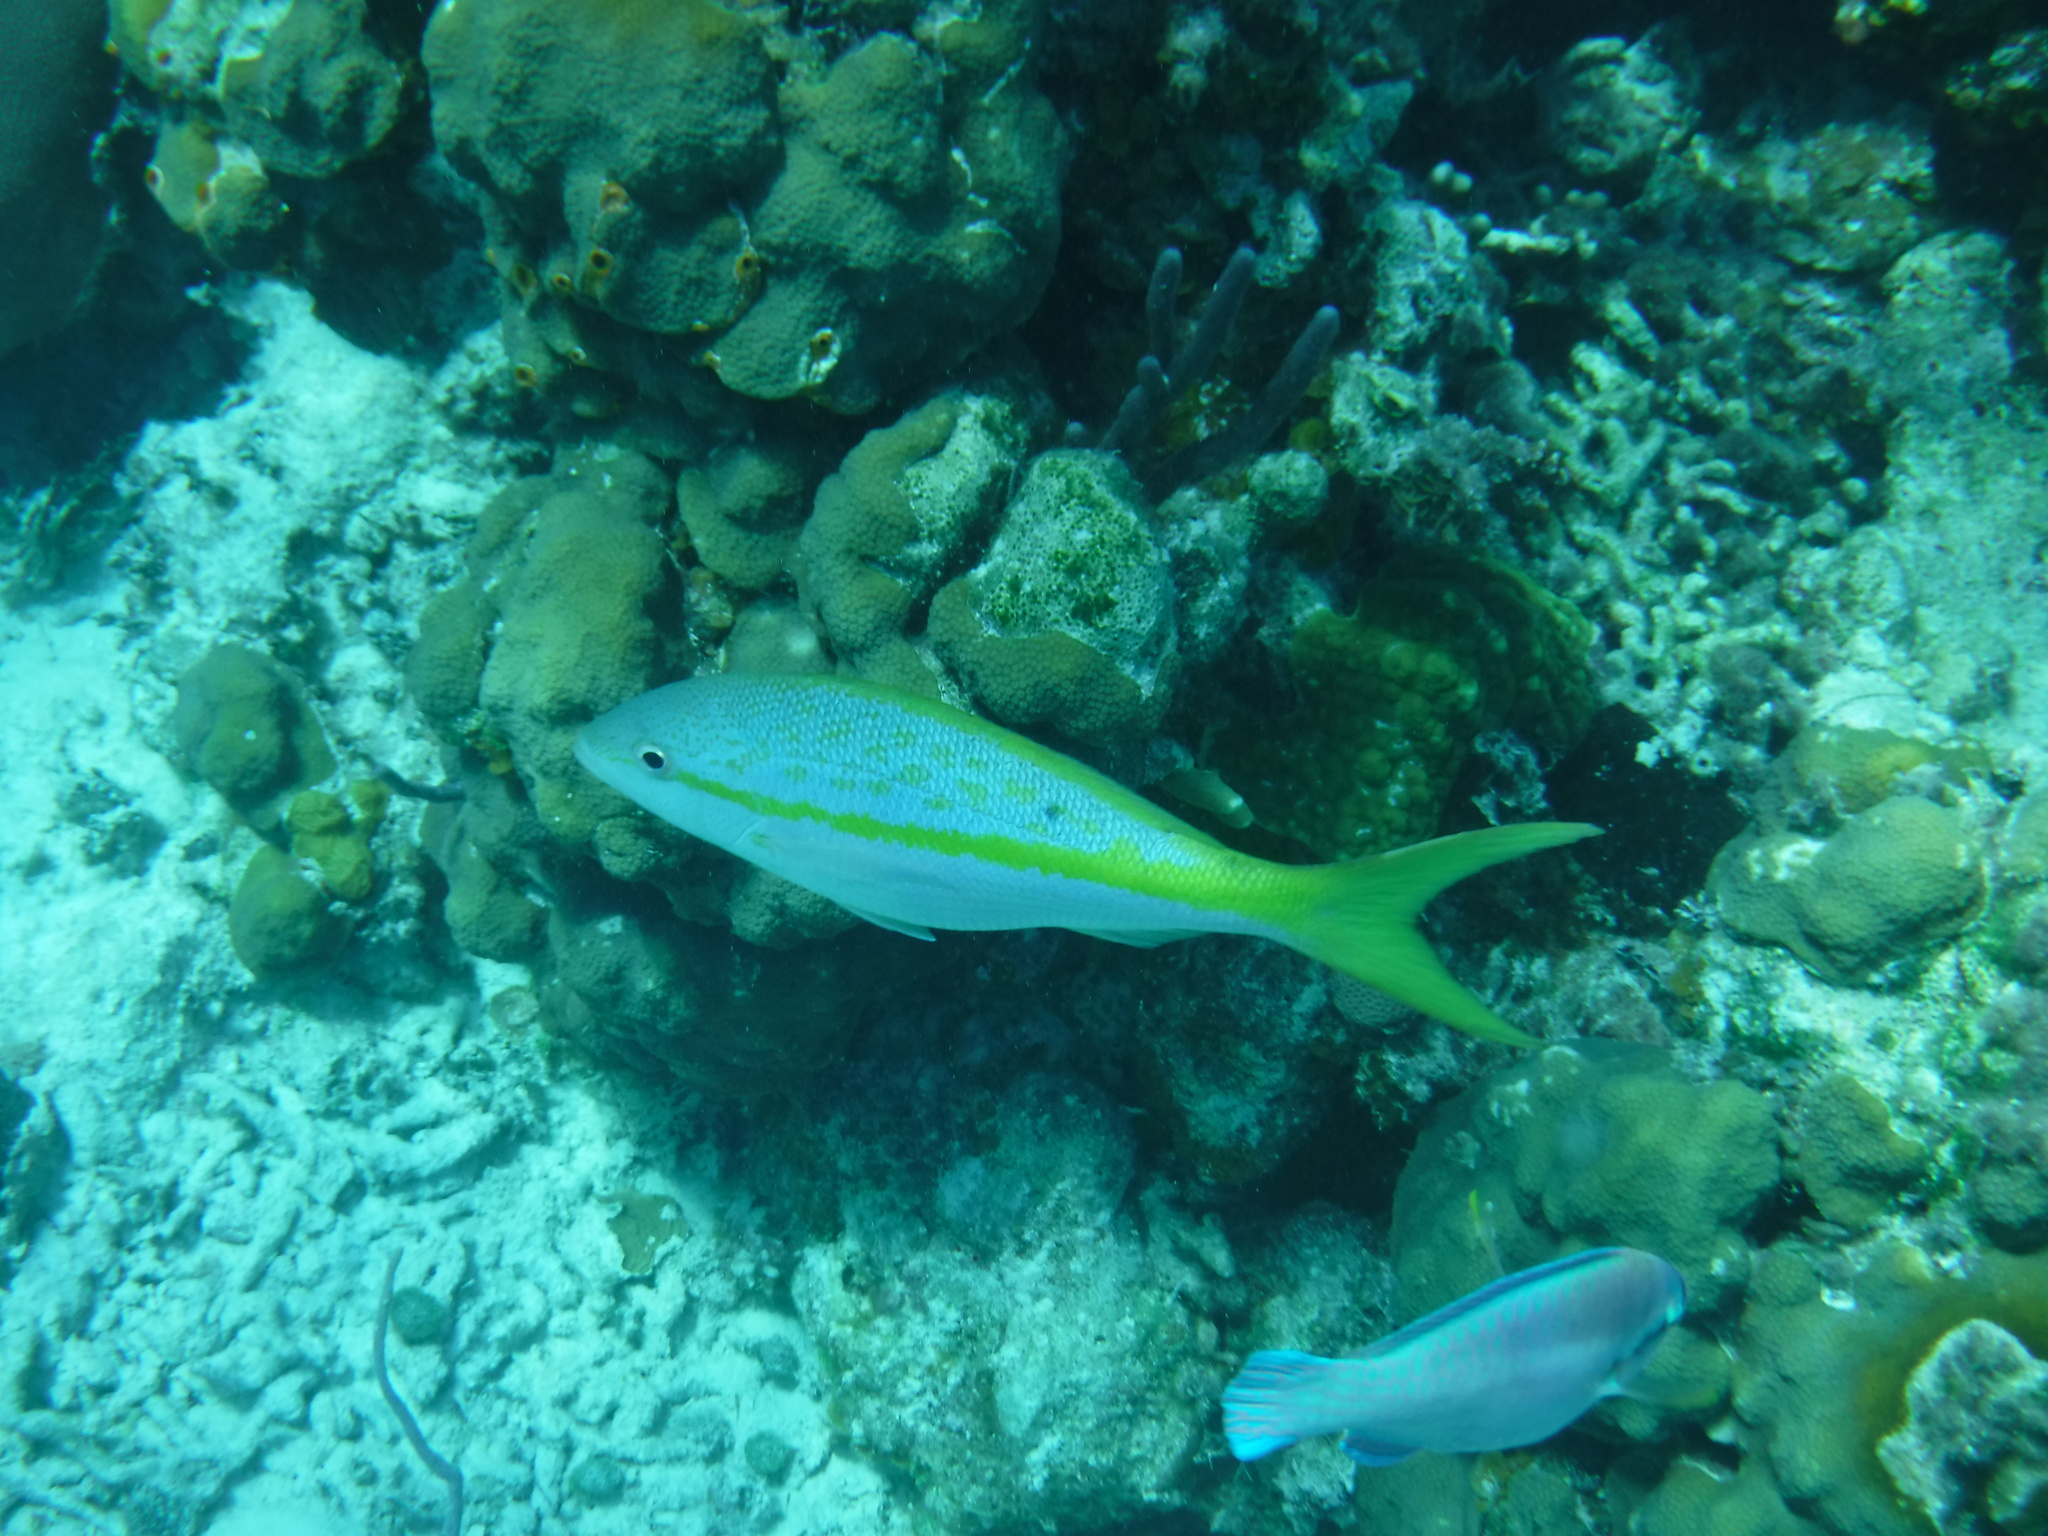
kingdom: Animalia
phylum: Chordata
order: Perciformes
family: Lutjanidae
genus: Ocyurus
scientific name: Ocyurus chrysurus
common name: Yellowtail snapper
